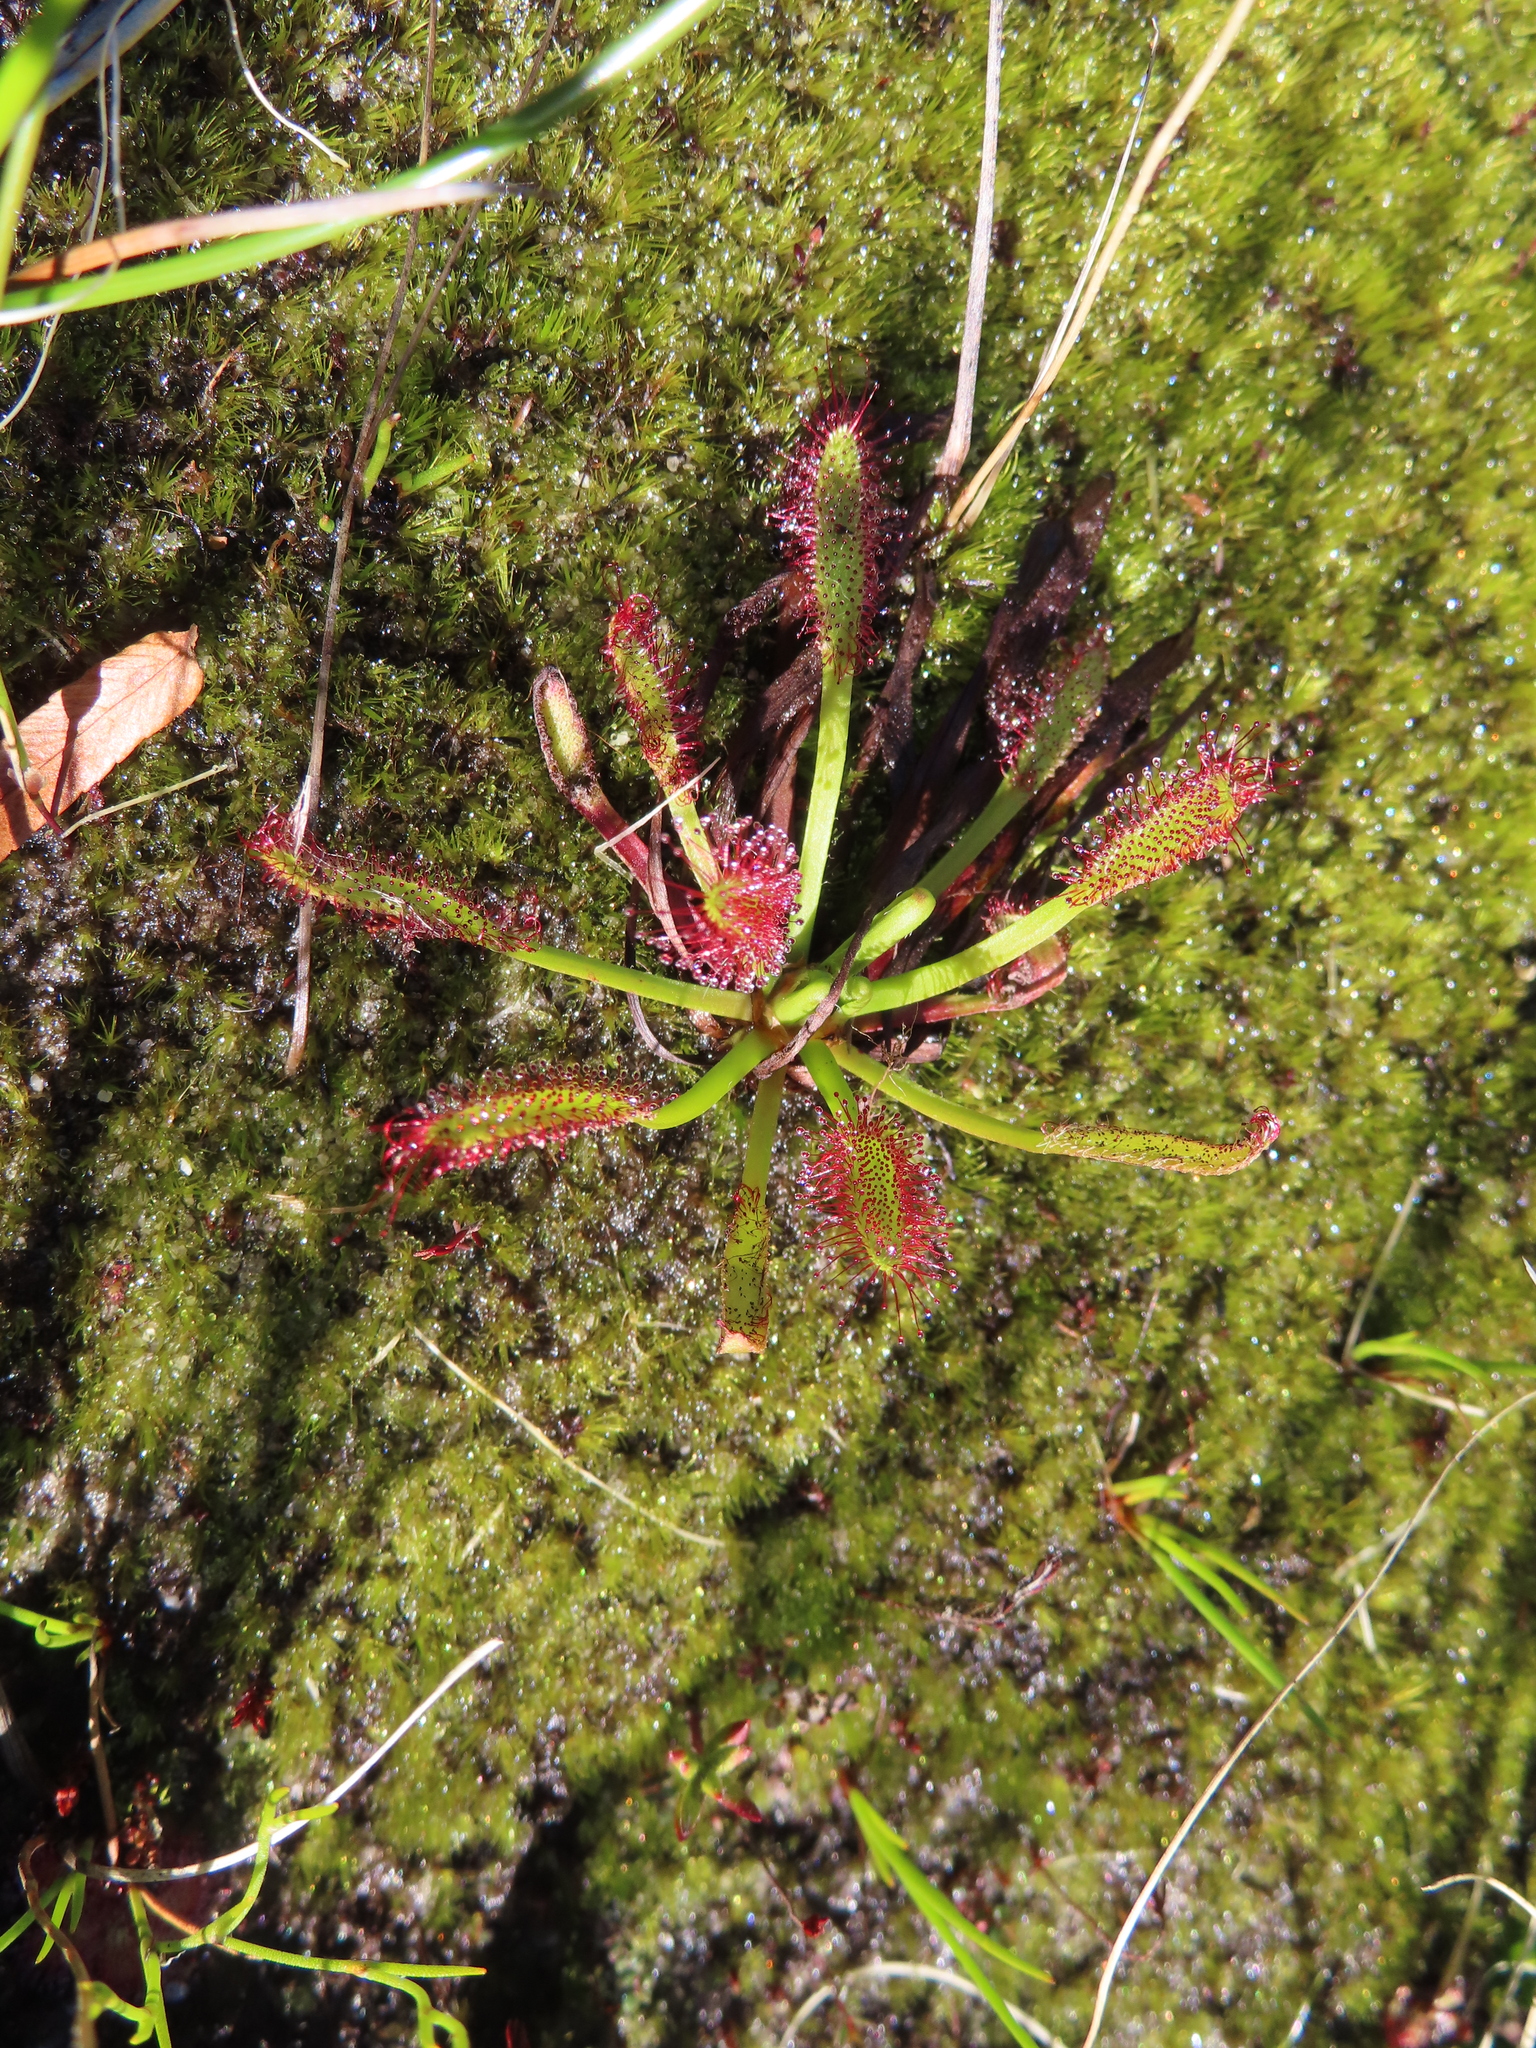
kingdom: Plantae
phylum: Tracheophyta
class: Magnoliopsida
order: Caryophyllales
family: Droseraceae
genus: Drosera
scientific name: Drosera capensis
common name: Cape sundew
